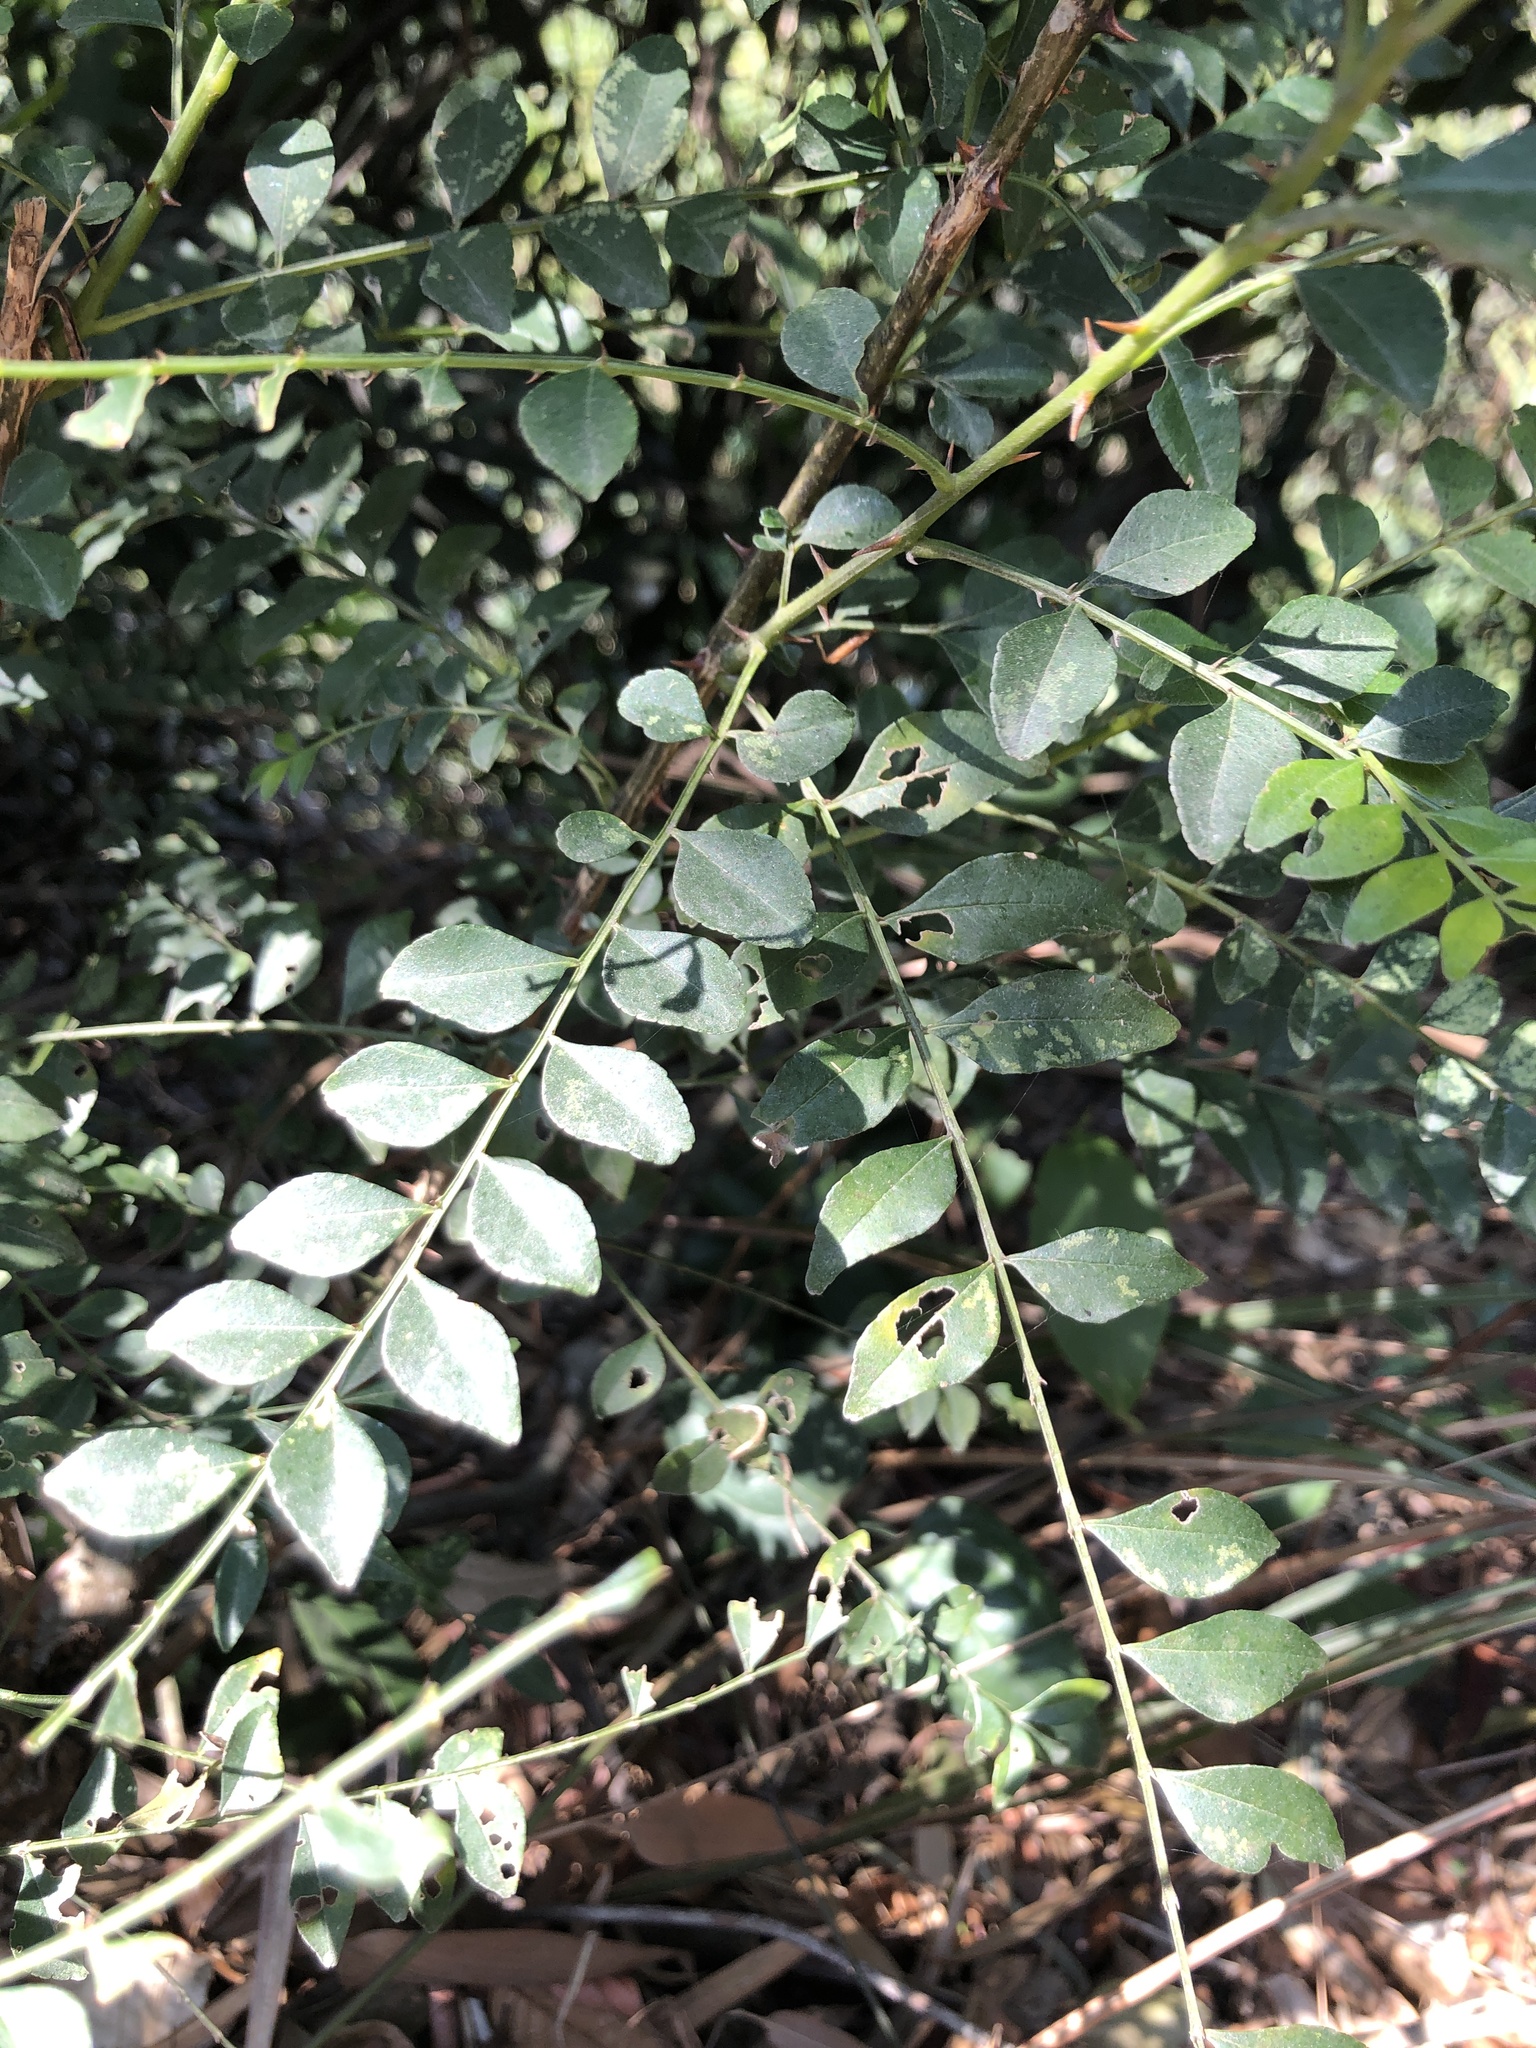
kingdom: Plantae
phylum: Tracheophyta
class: Magnoliopsida
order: Lamiales
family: Oleaceae
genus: Ligustrum
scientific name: Ligustrum sinense
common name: Chinese privet
